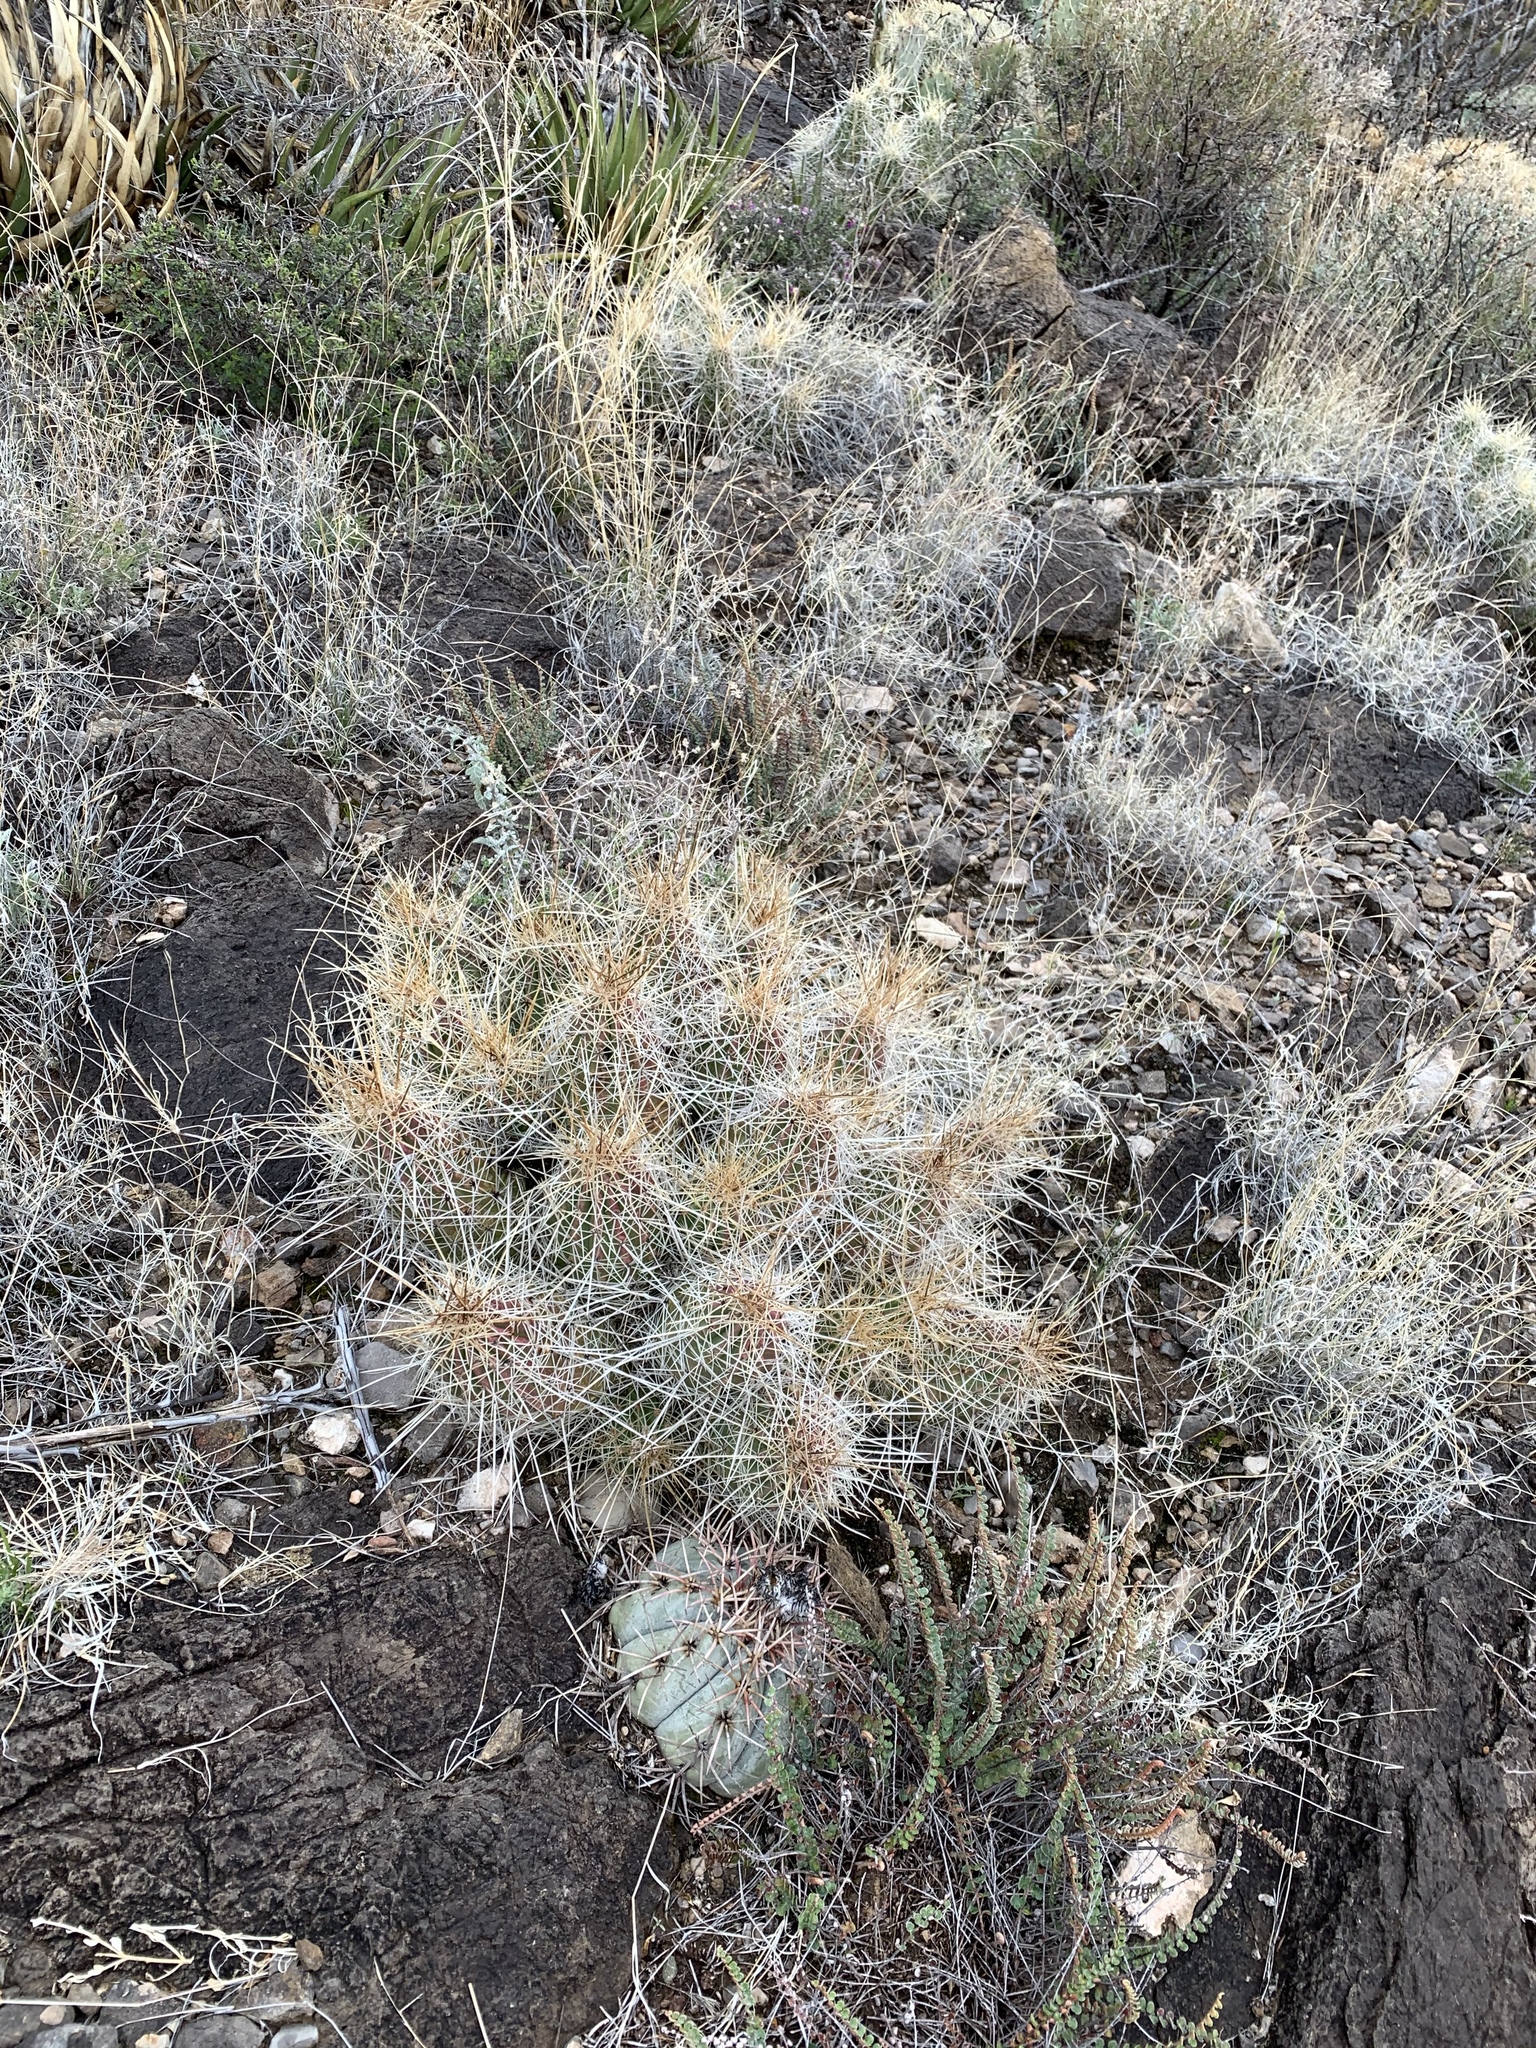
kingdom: Plantae
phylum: Tracheophyta
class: Magnoliopsida
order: Caryophyllales
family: Cactaceae
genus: Echinocereus
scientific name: Echinocereus stramineus
